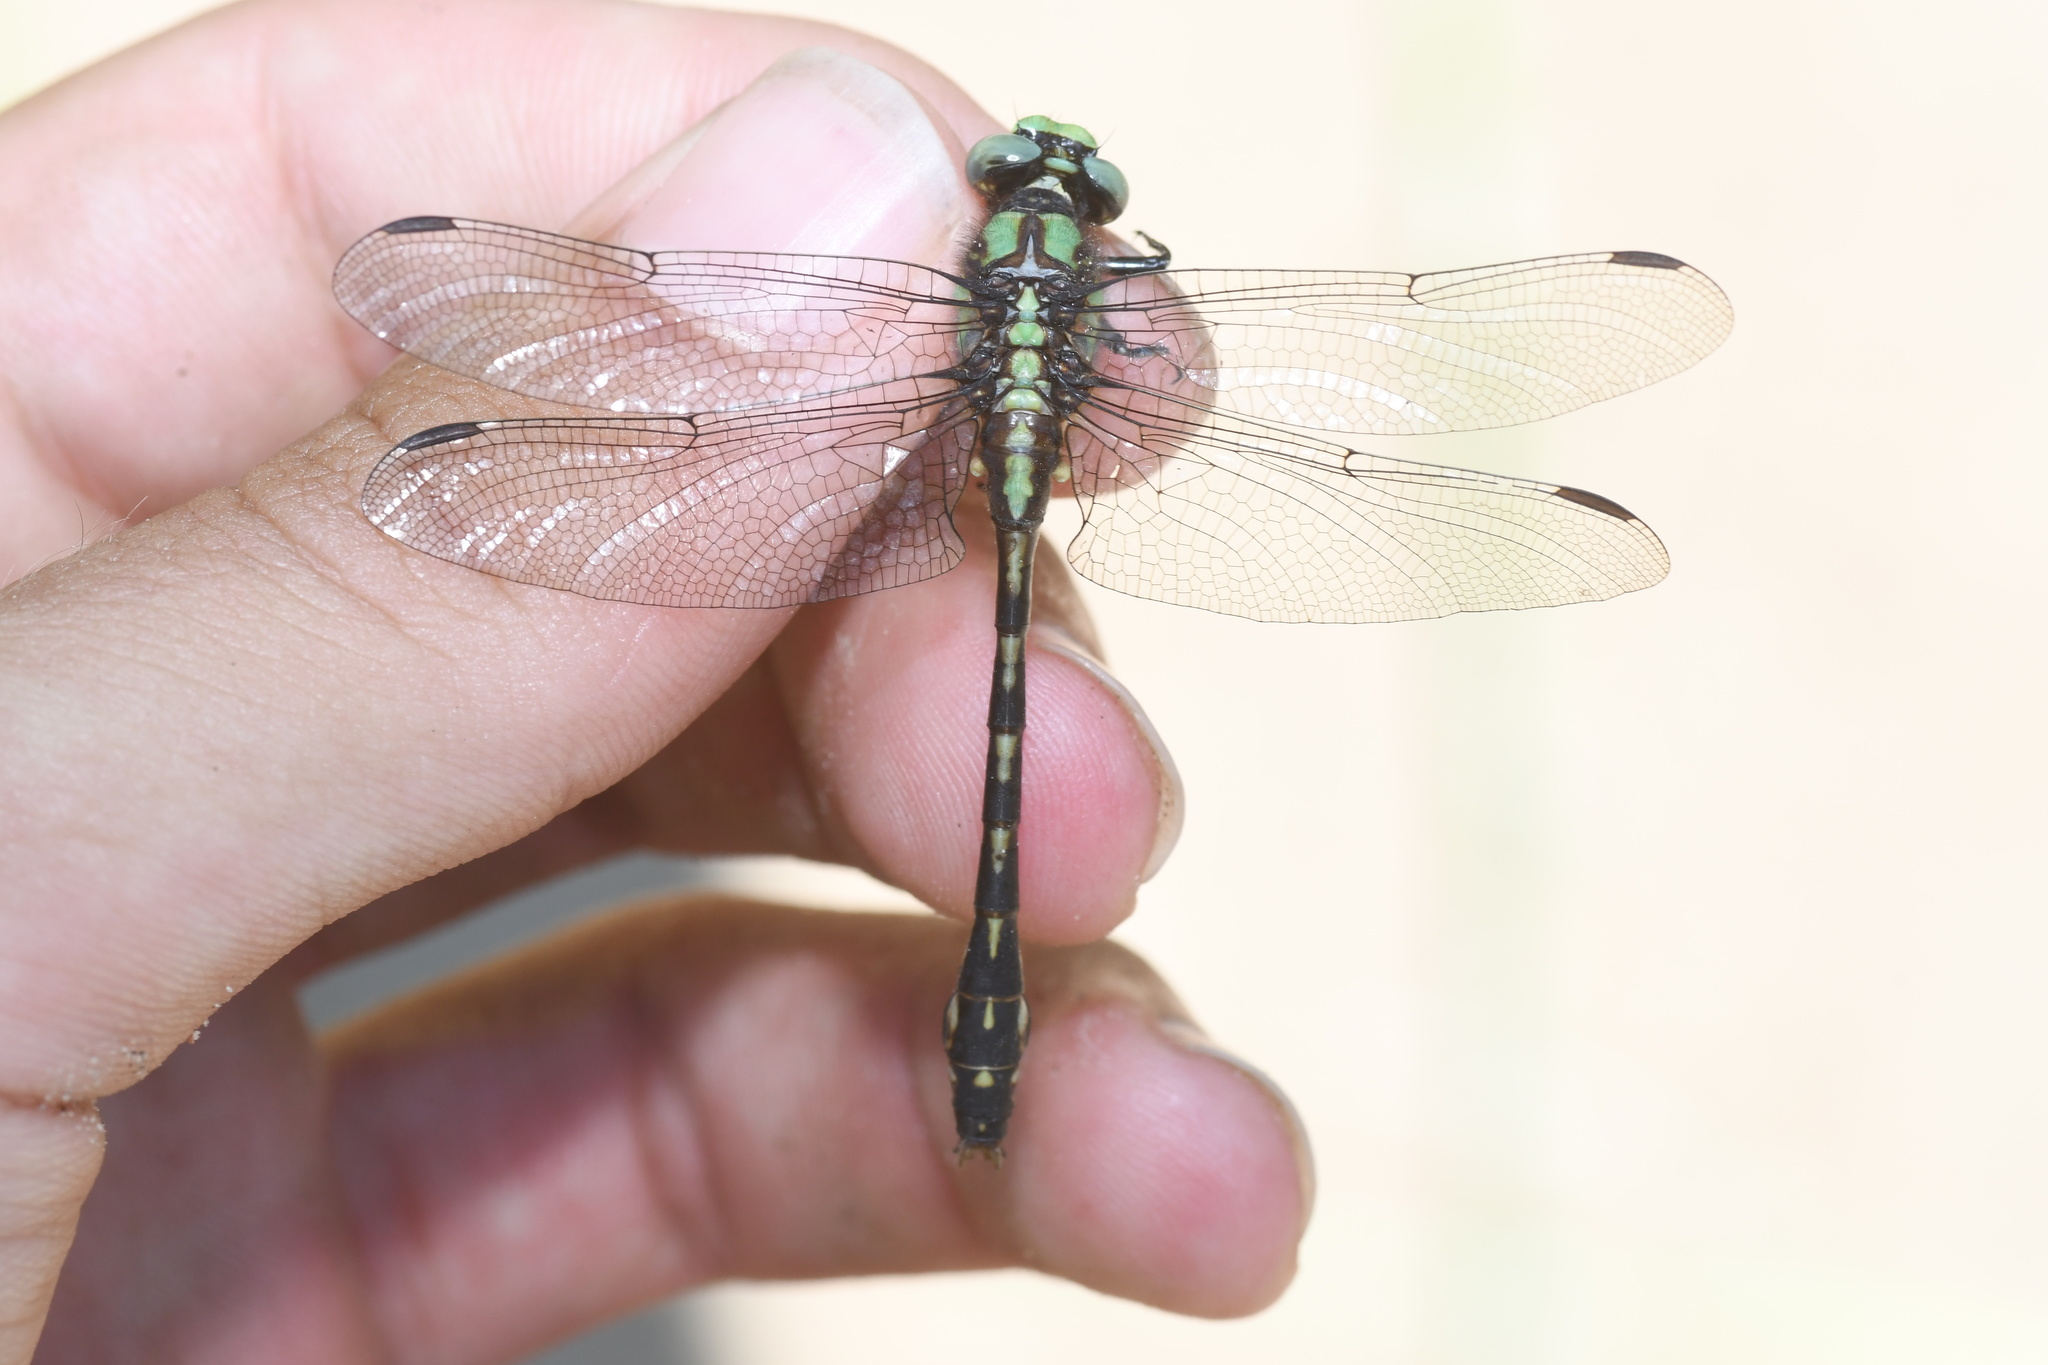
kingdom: Animalia
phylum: Arthropoda
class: Insecta
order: Odonata
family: Gomphidae
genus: Ophiogomphus
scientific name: Ophiogomphus carolus
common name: Riffle snaketail
